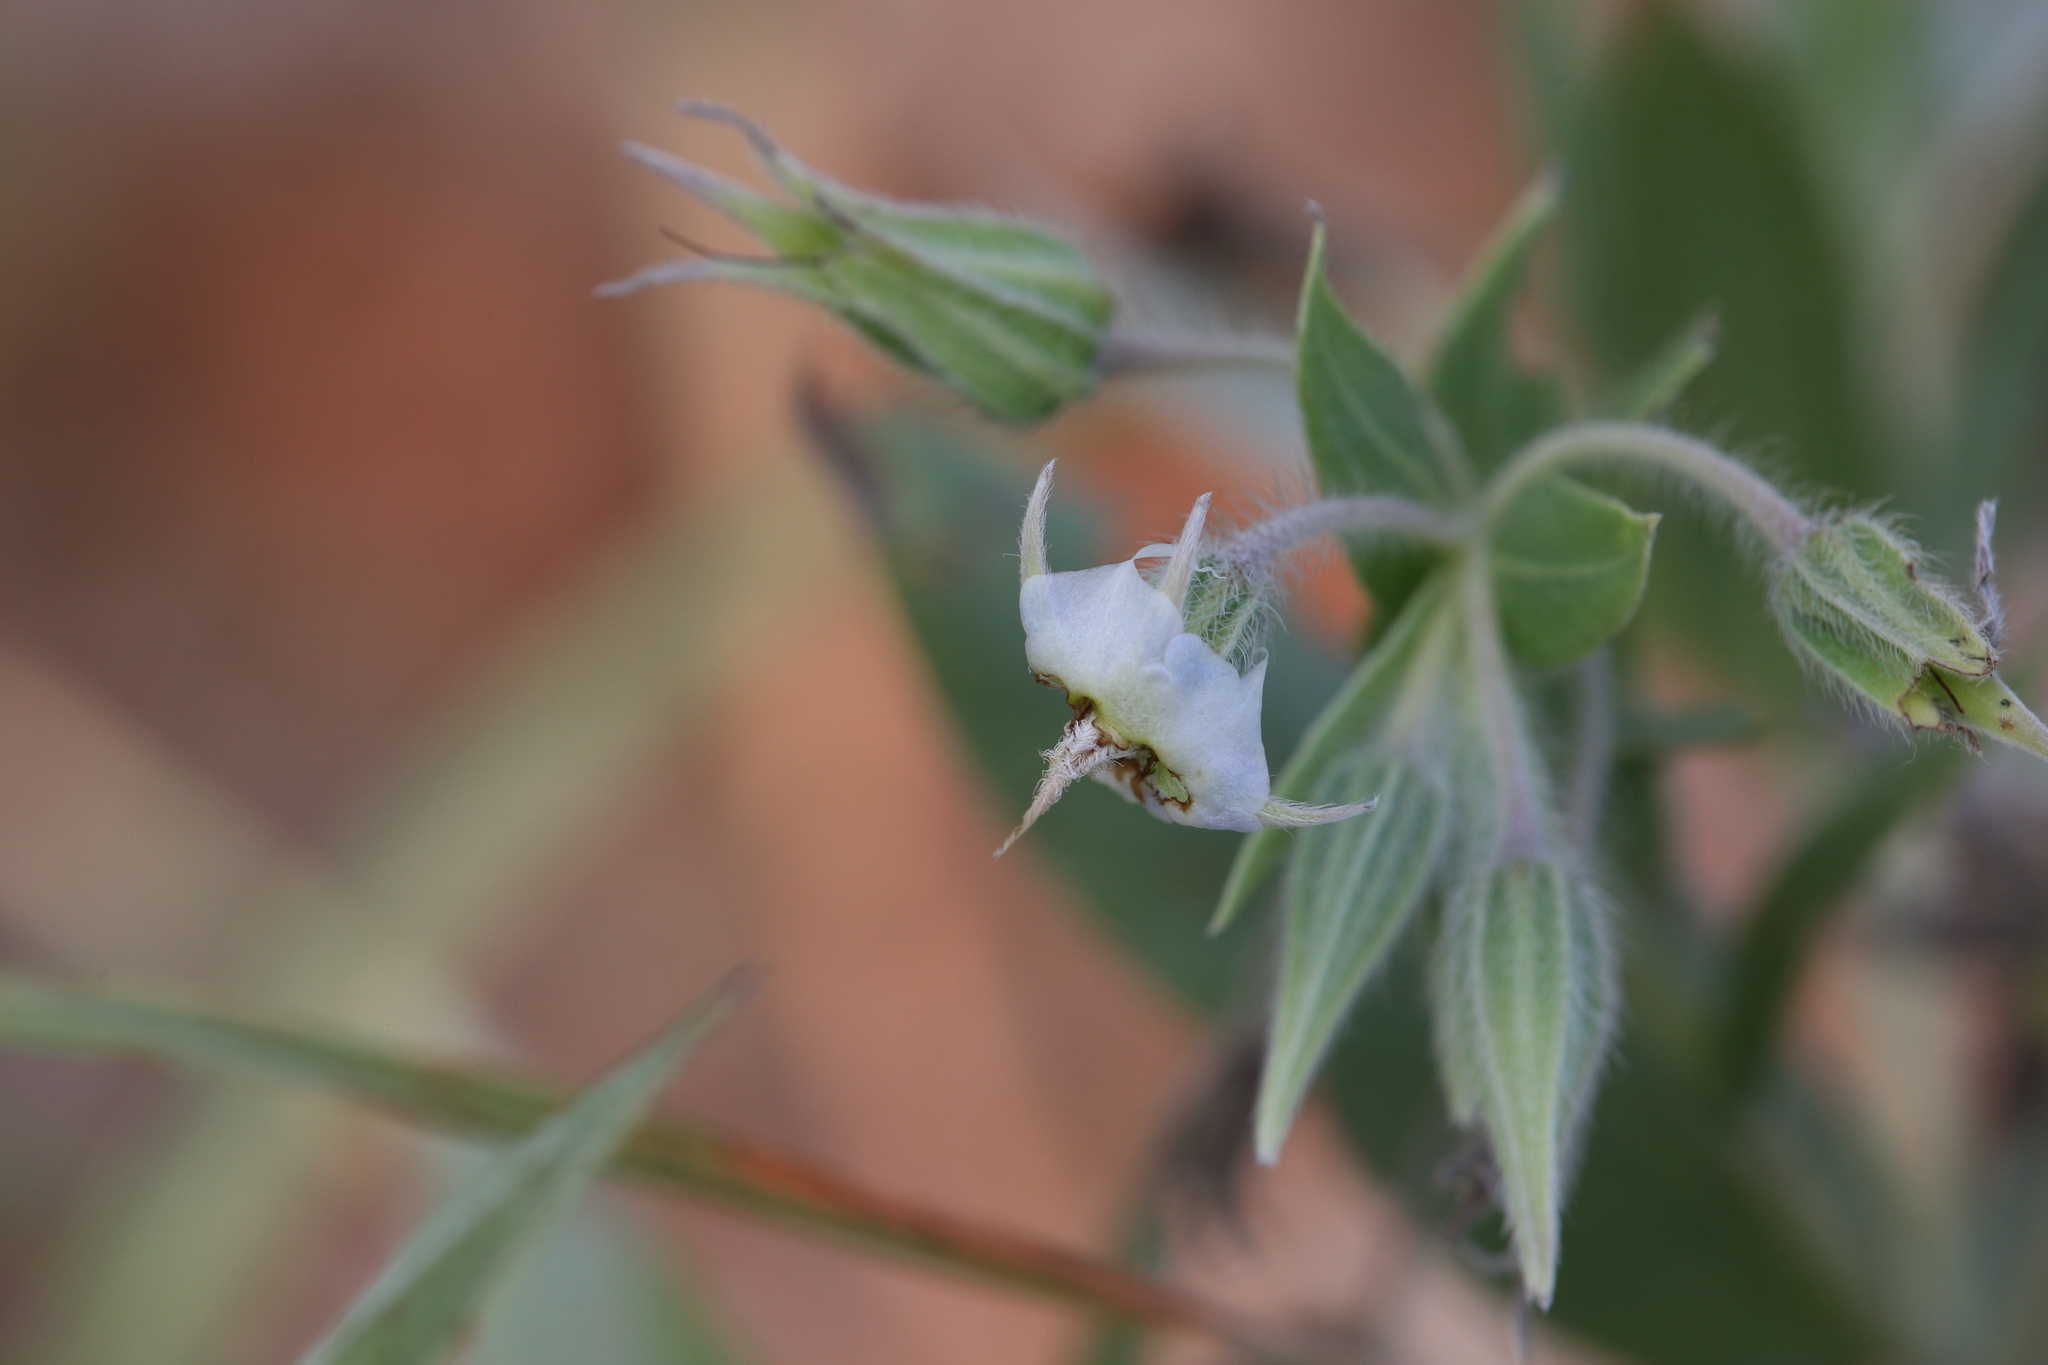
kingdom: Plantae
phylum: Tracheophyta
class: Magnoliopsida
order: Boraginales
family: Boraginaceae
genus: Trichodesma
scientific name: Trichodesma zeylanicum
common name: Camelbush
